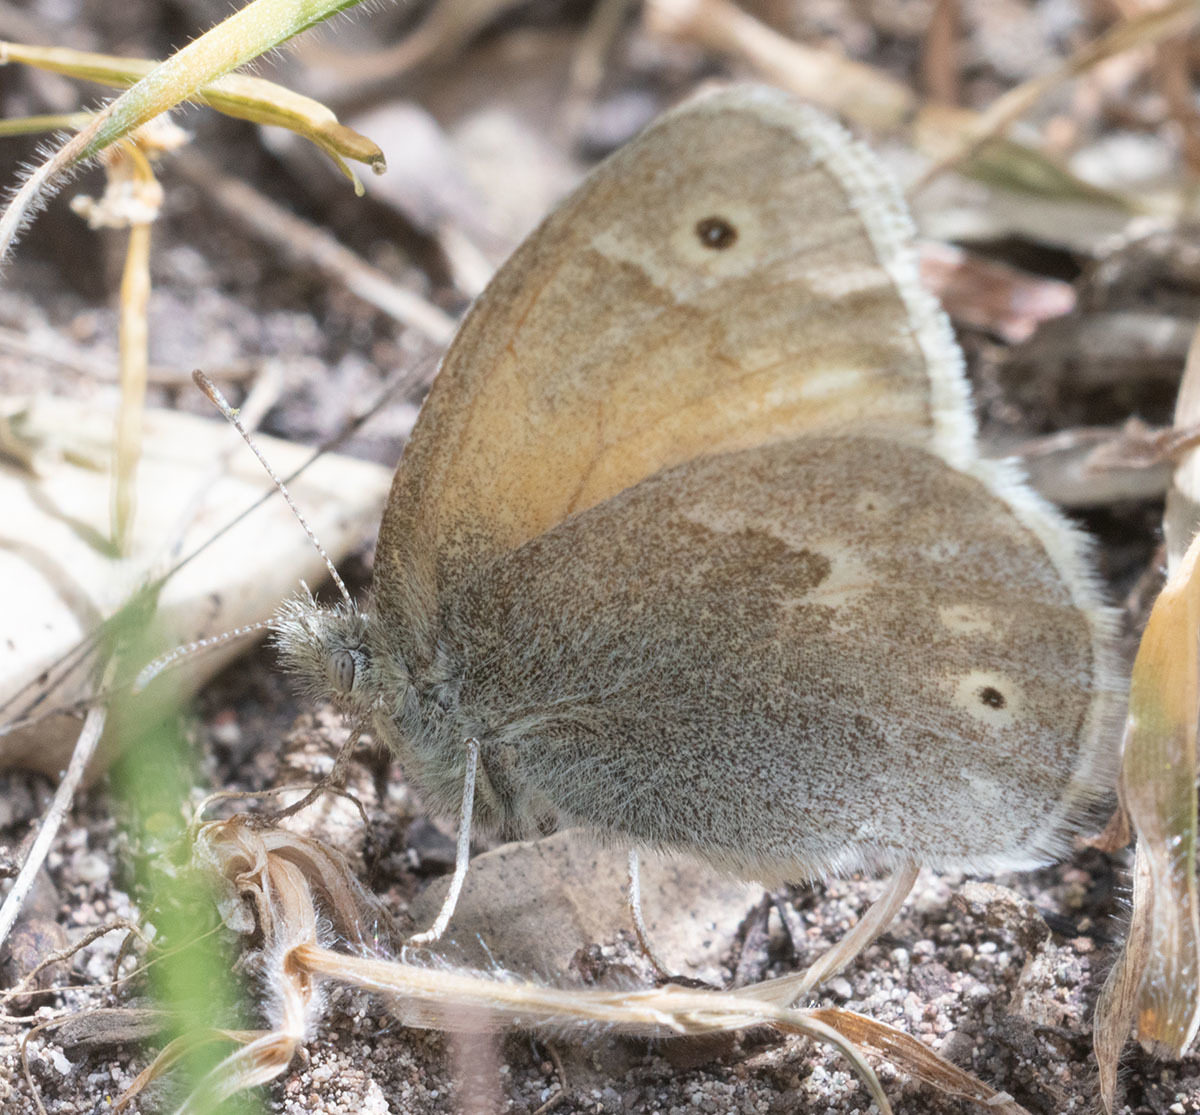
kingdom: Animalia
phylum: Arthropoda
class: Insecta
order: Lepidoptera
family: Nymphalidae
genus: Coenonympha
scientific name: Coenonympha california
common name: Common ringlet
